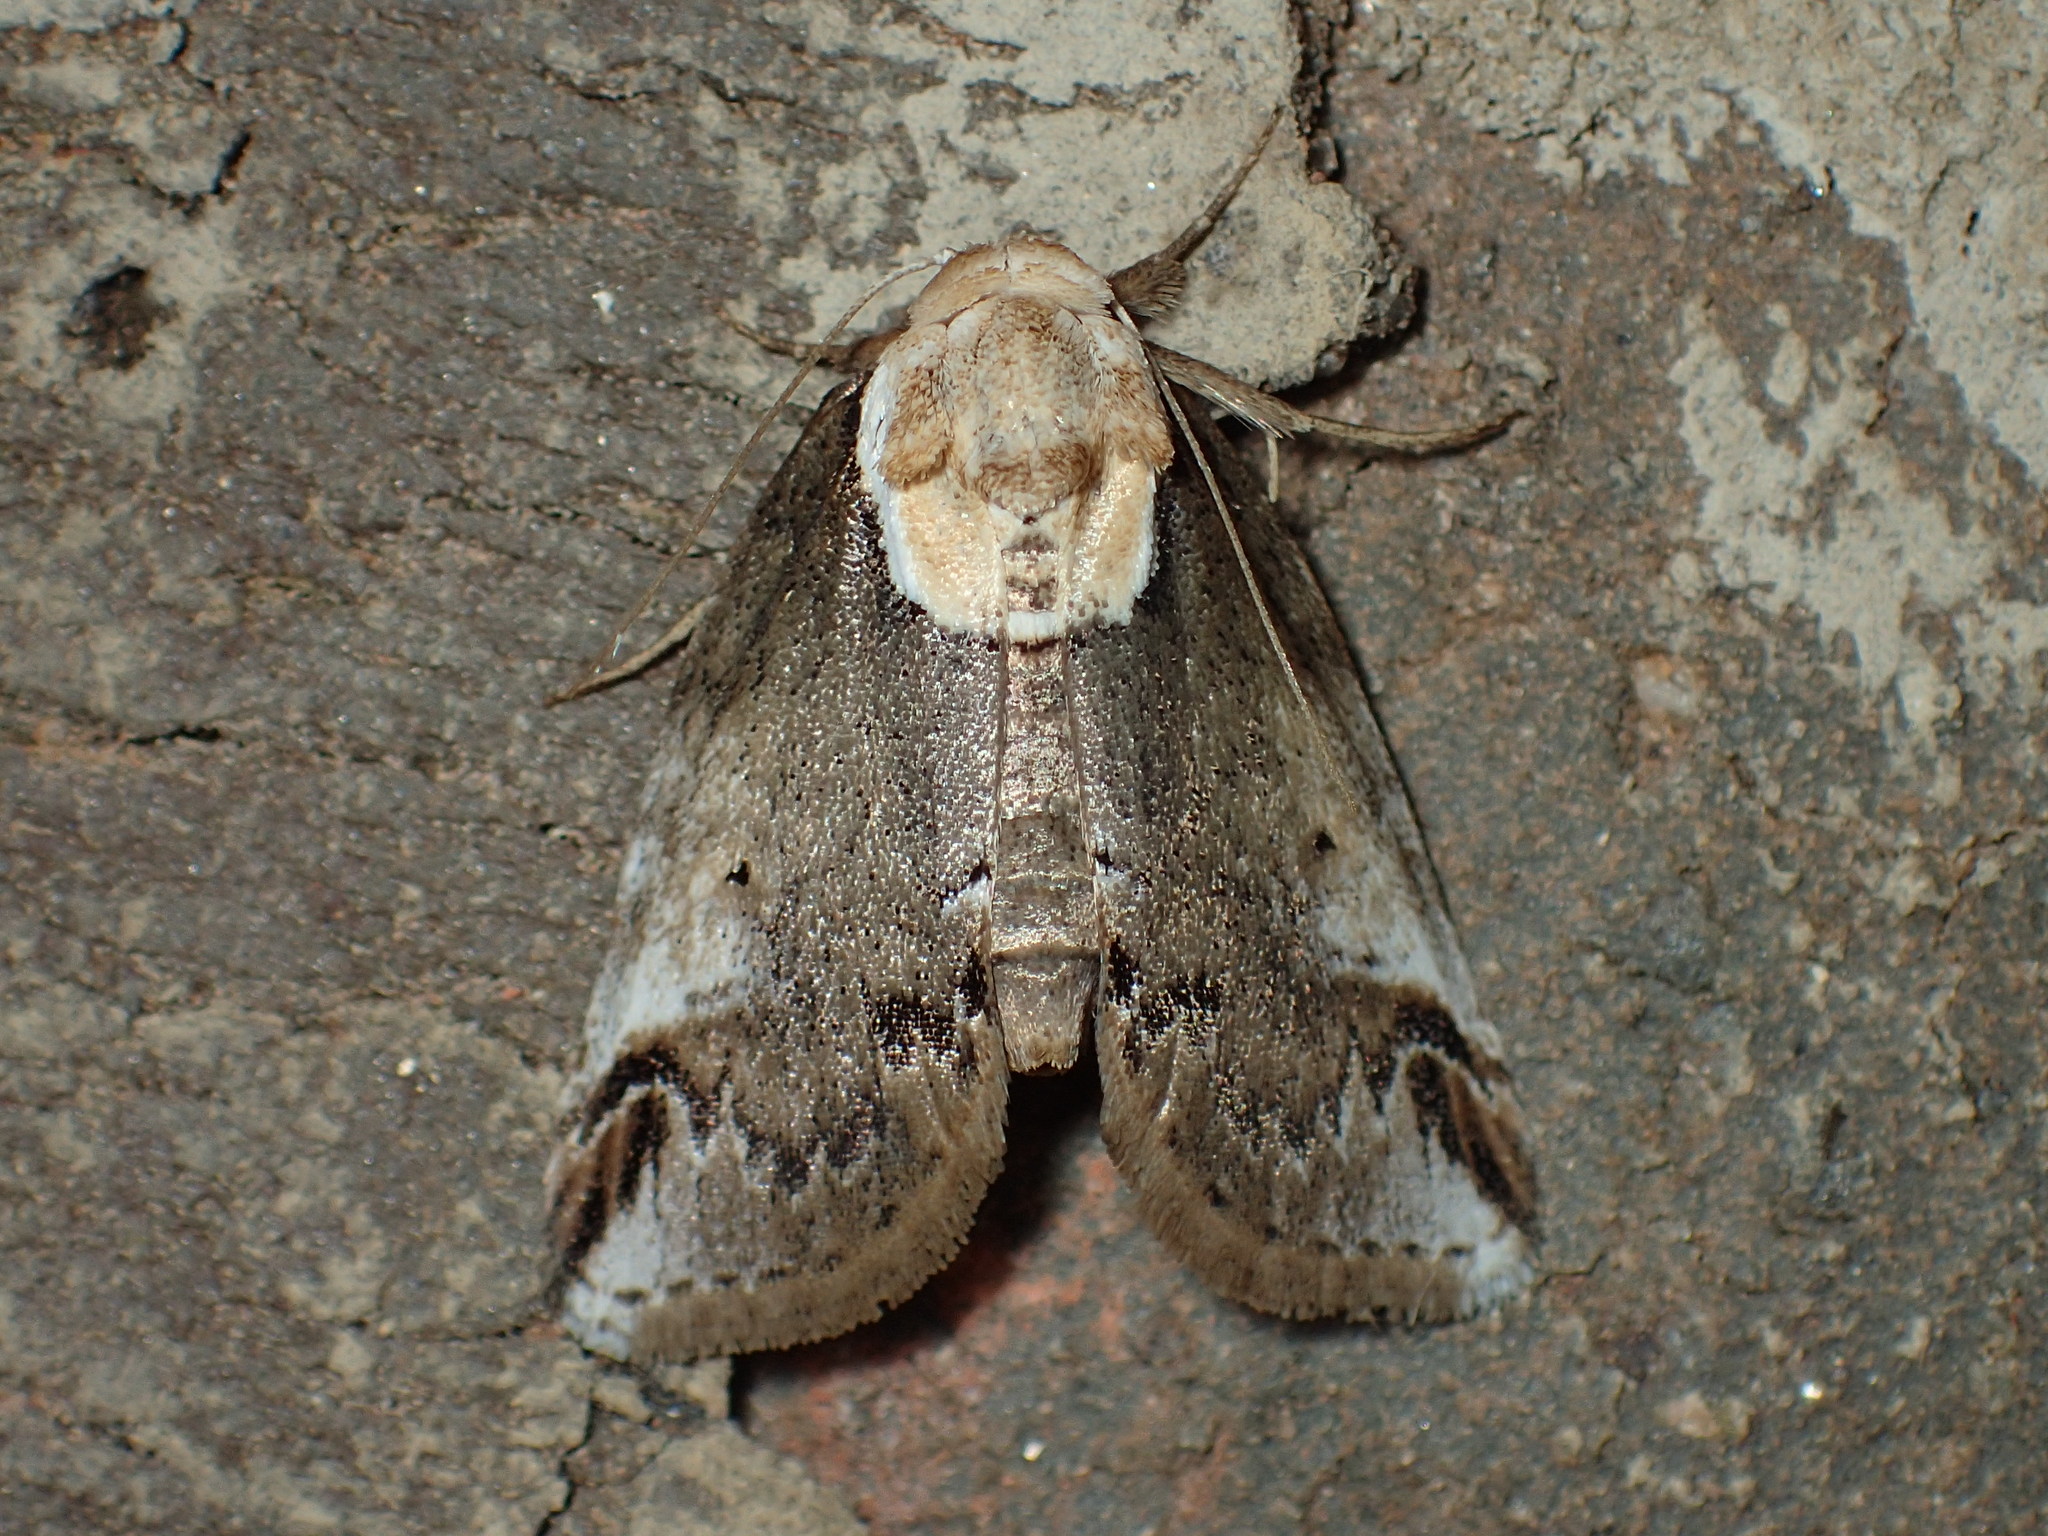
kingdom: Animalia
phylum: Arthropoda
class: Insecta
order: Lepidoptera
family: Nolidae
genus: Baileya
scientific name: Baileya ophthalmica
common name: Eyed baileya moth
